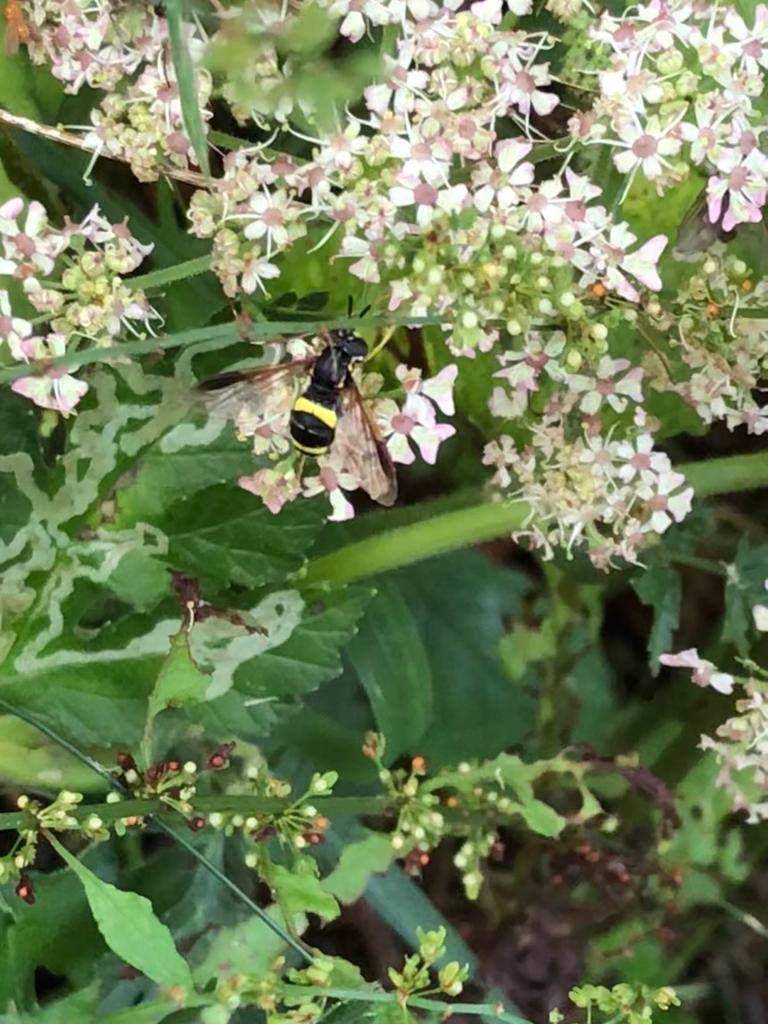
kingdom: Animalia
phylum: Arthropoda
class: Insecta
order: Diptera
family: Syrphidae
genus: Chrysotoxum
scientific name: Chrysotoxum bicincta
